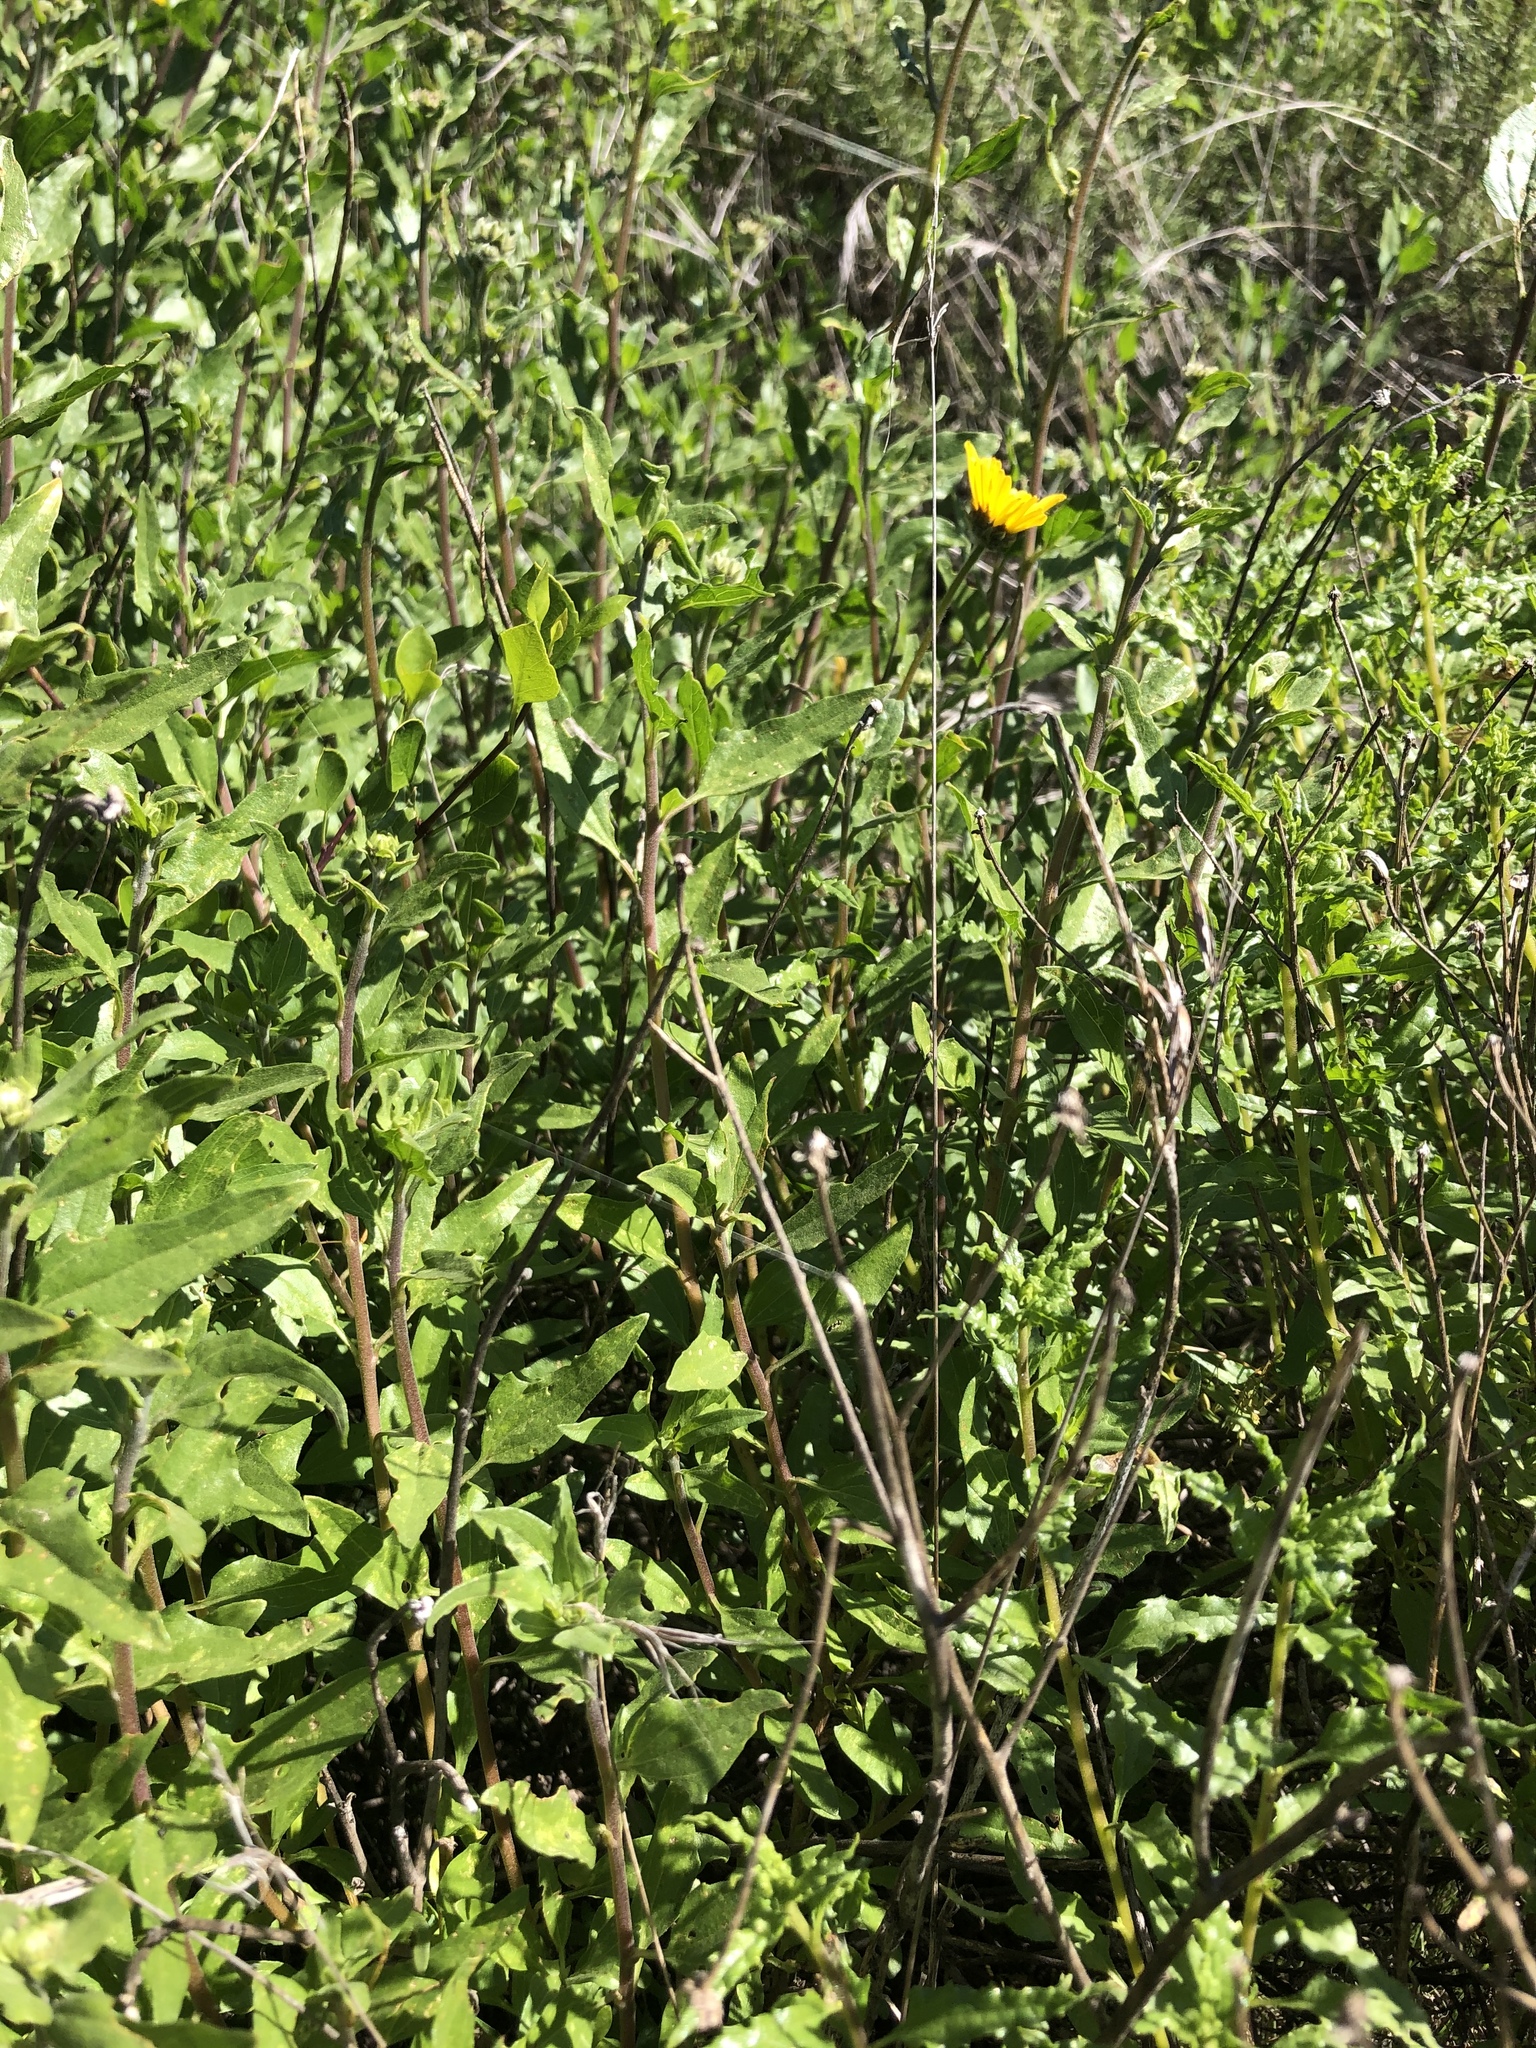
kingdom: Plantae
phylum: Tracheophyta
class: Magnoliopsida
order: Asterales
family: Asteraceae
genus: Encelia
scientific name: Encelia californica
